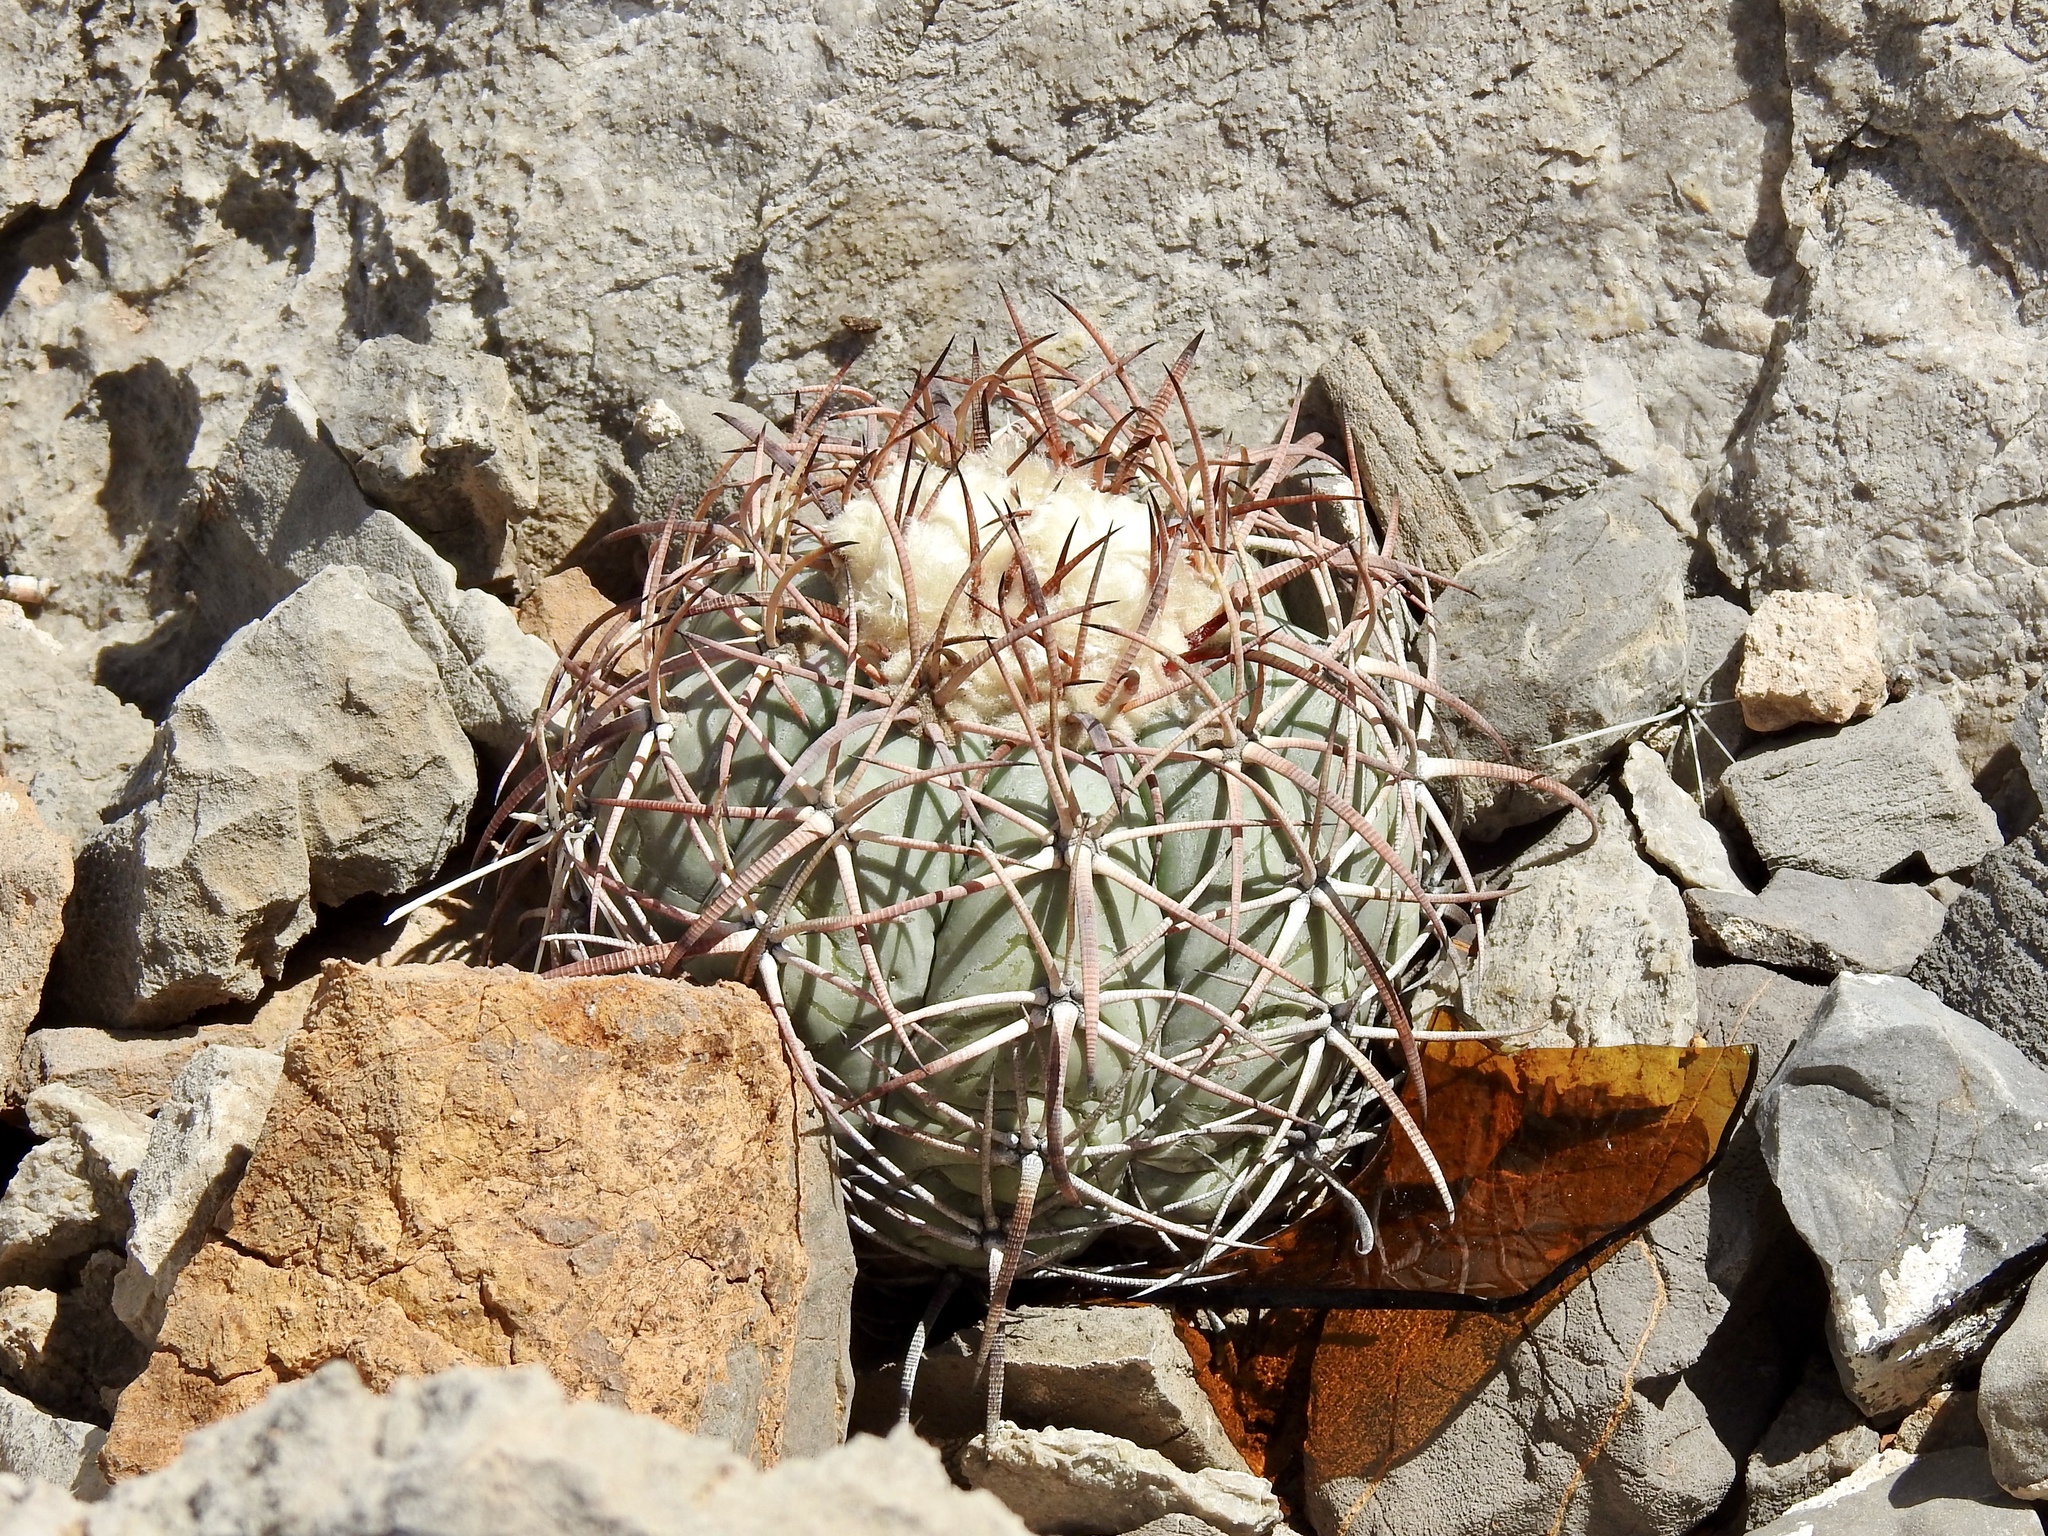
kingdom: Plantae
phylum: Tracheophyta
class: Magnoliopsida
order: Caryophyllales
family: Cactaceae
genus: Echinocactus
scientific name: Echinocactus horizonthalonius
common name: Devilshead
